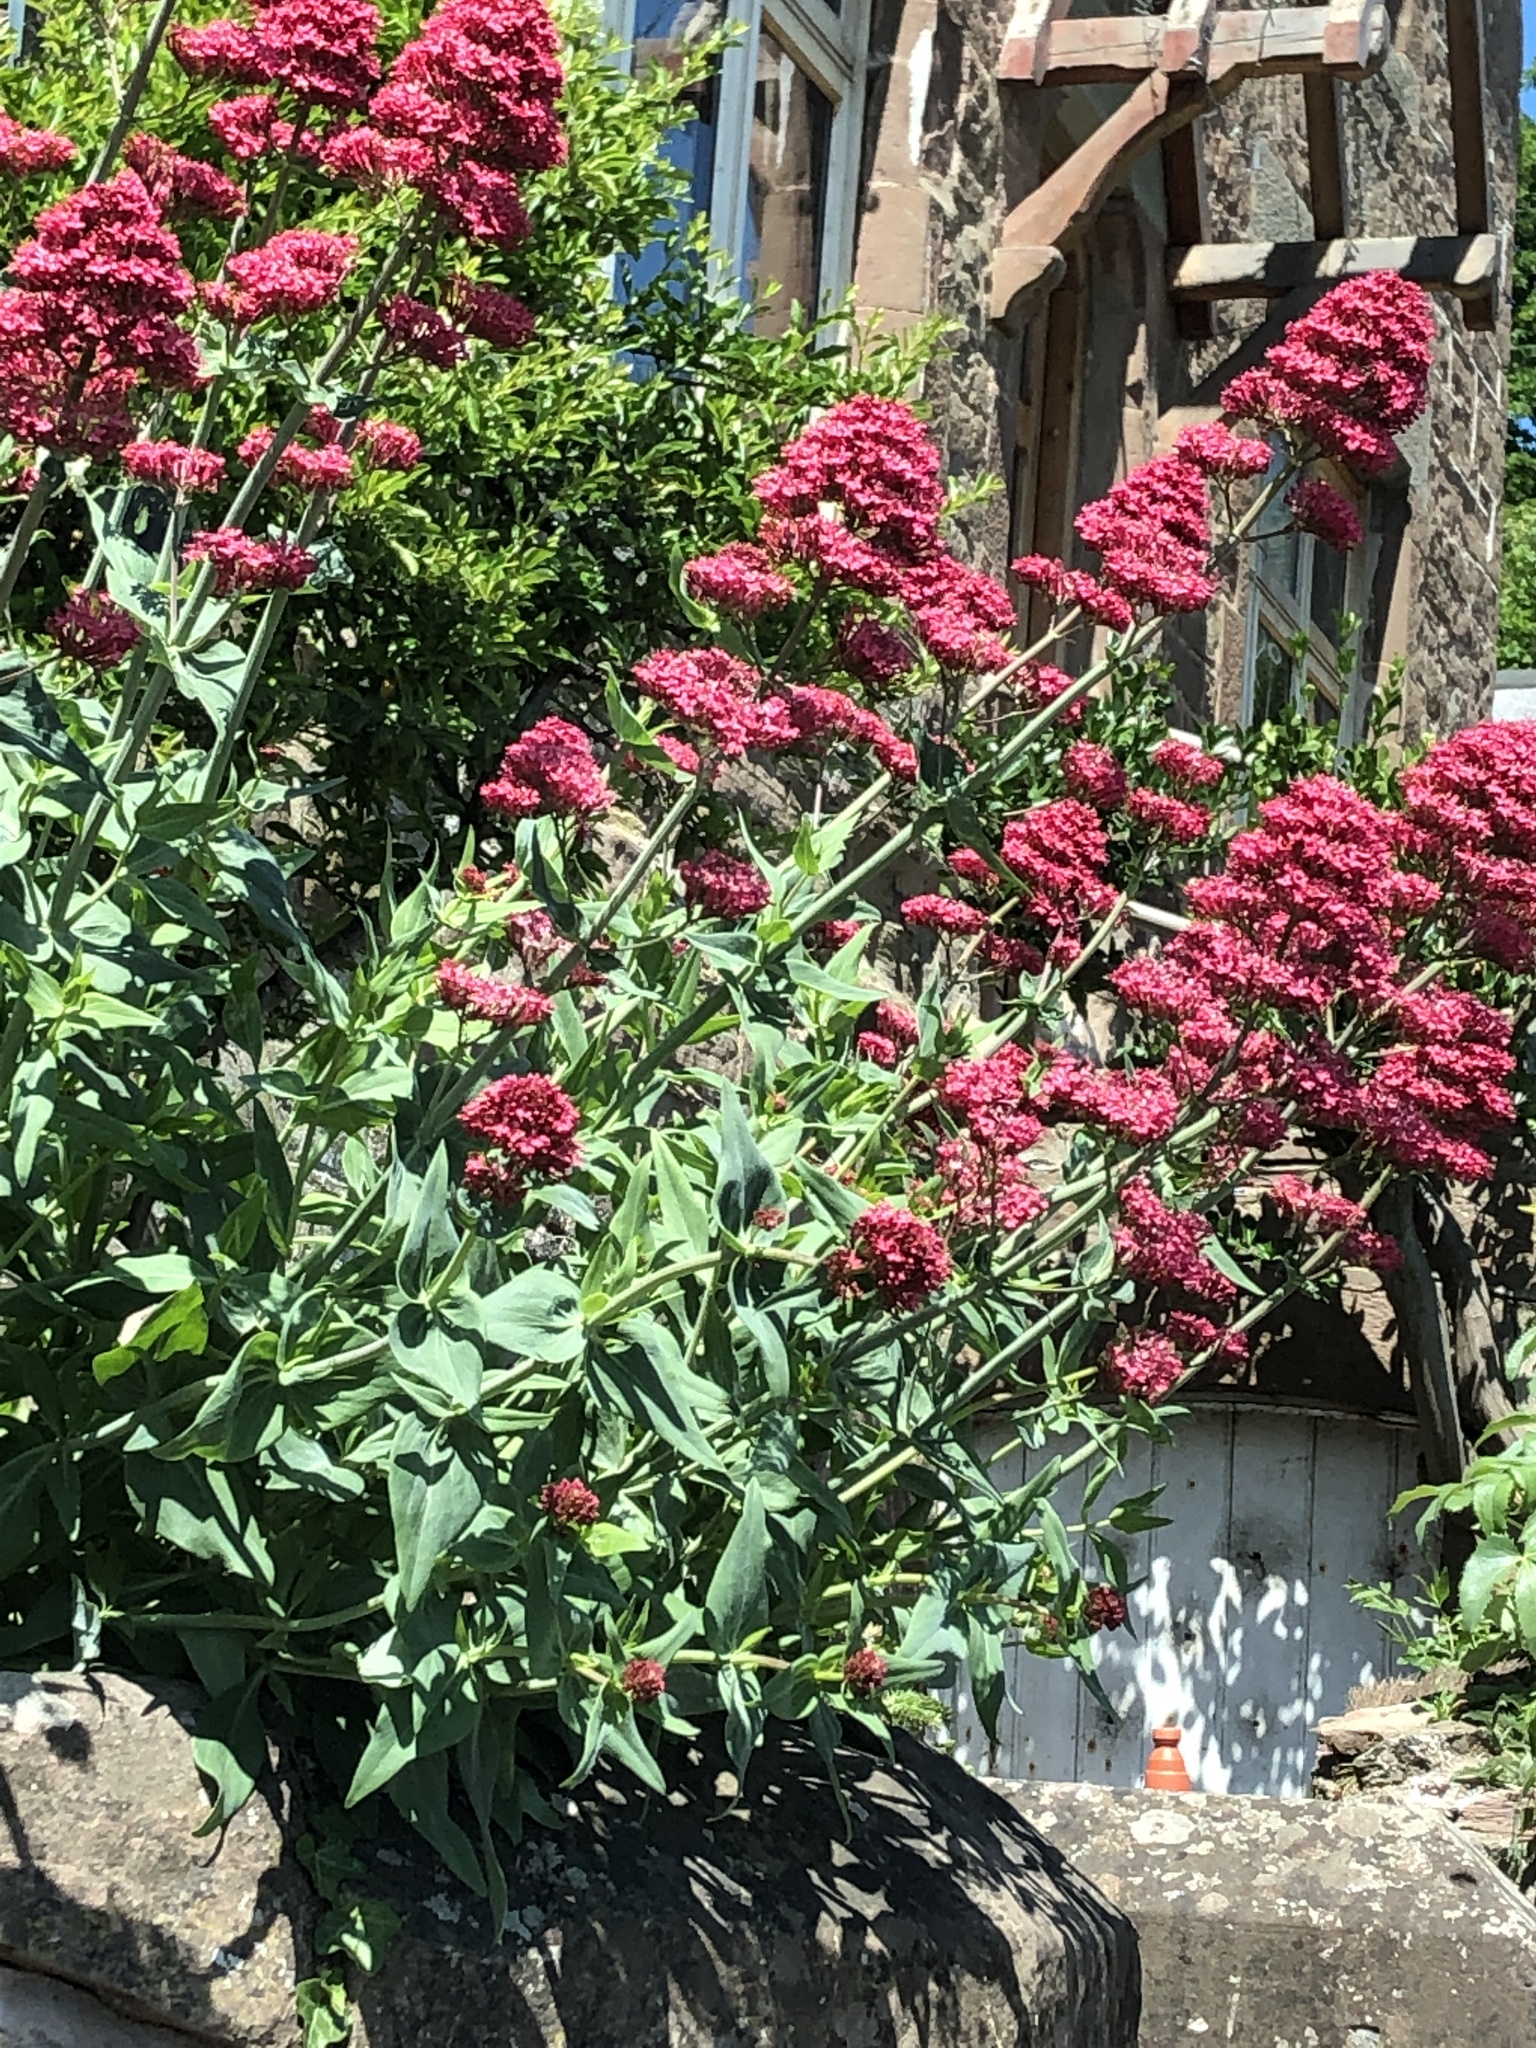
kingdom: Plantae
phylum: Tracheophyta
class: Magnoliopsida
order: Dipsacales
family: Caprifoliaceae
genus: Centranthus
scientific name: Centranthus ruber
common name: Red valerian
